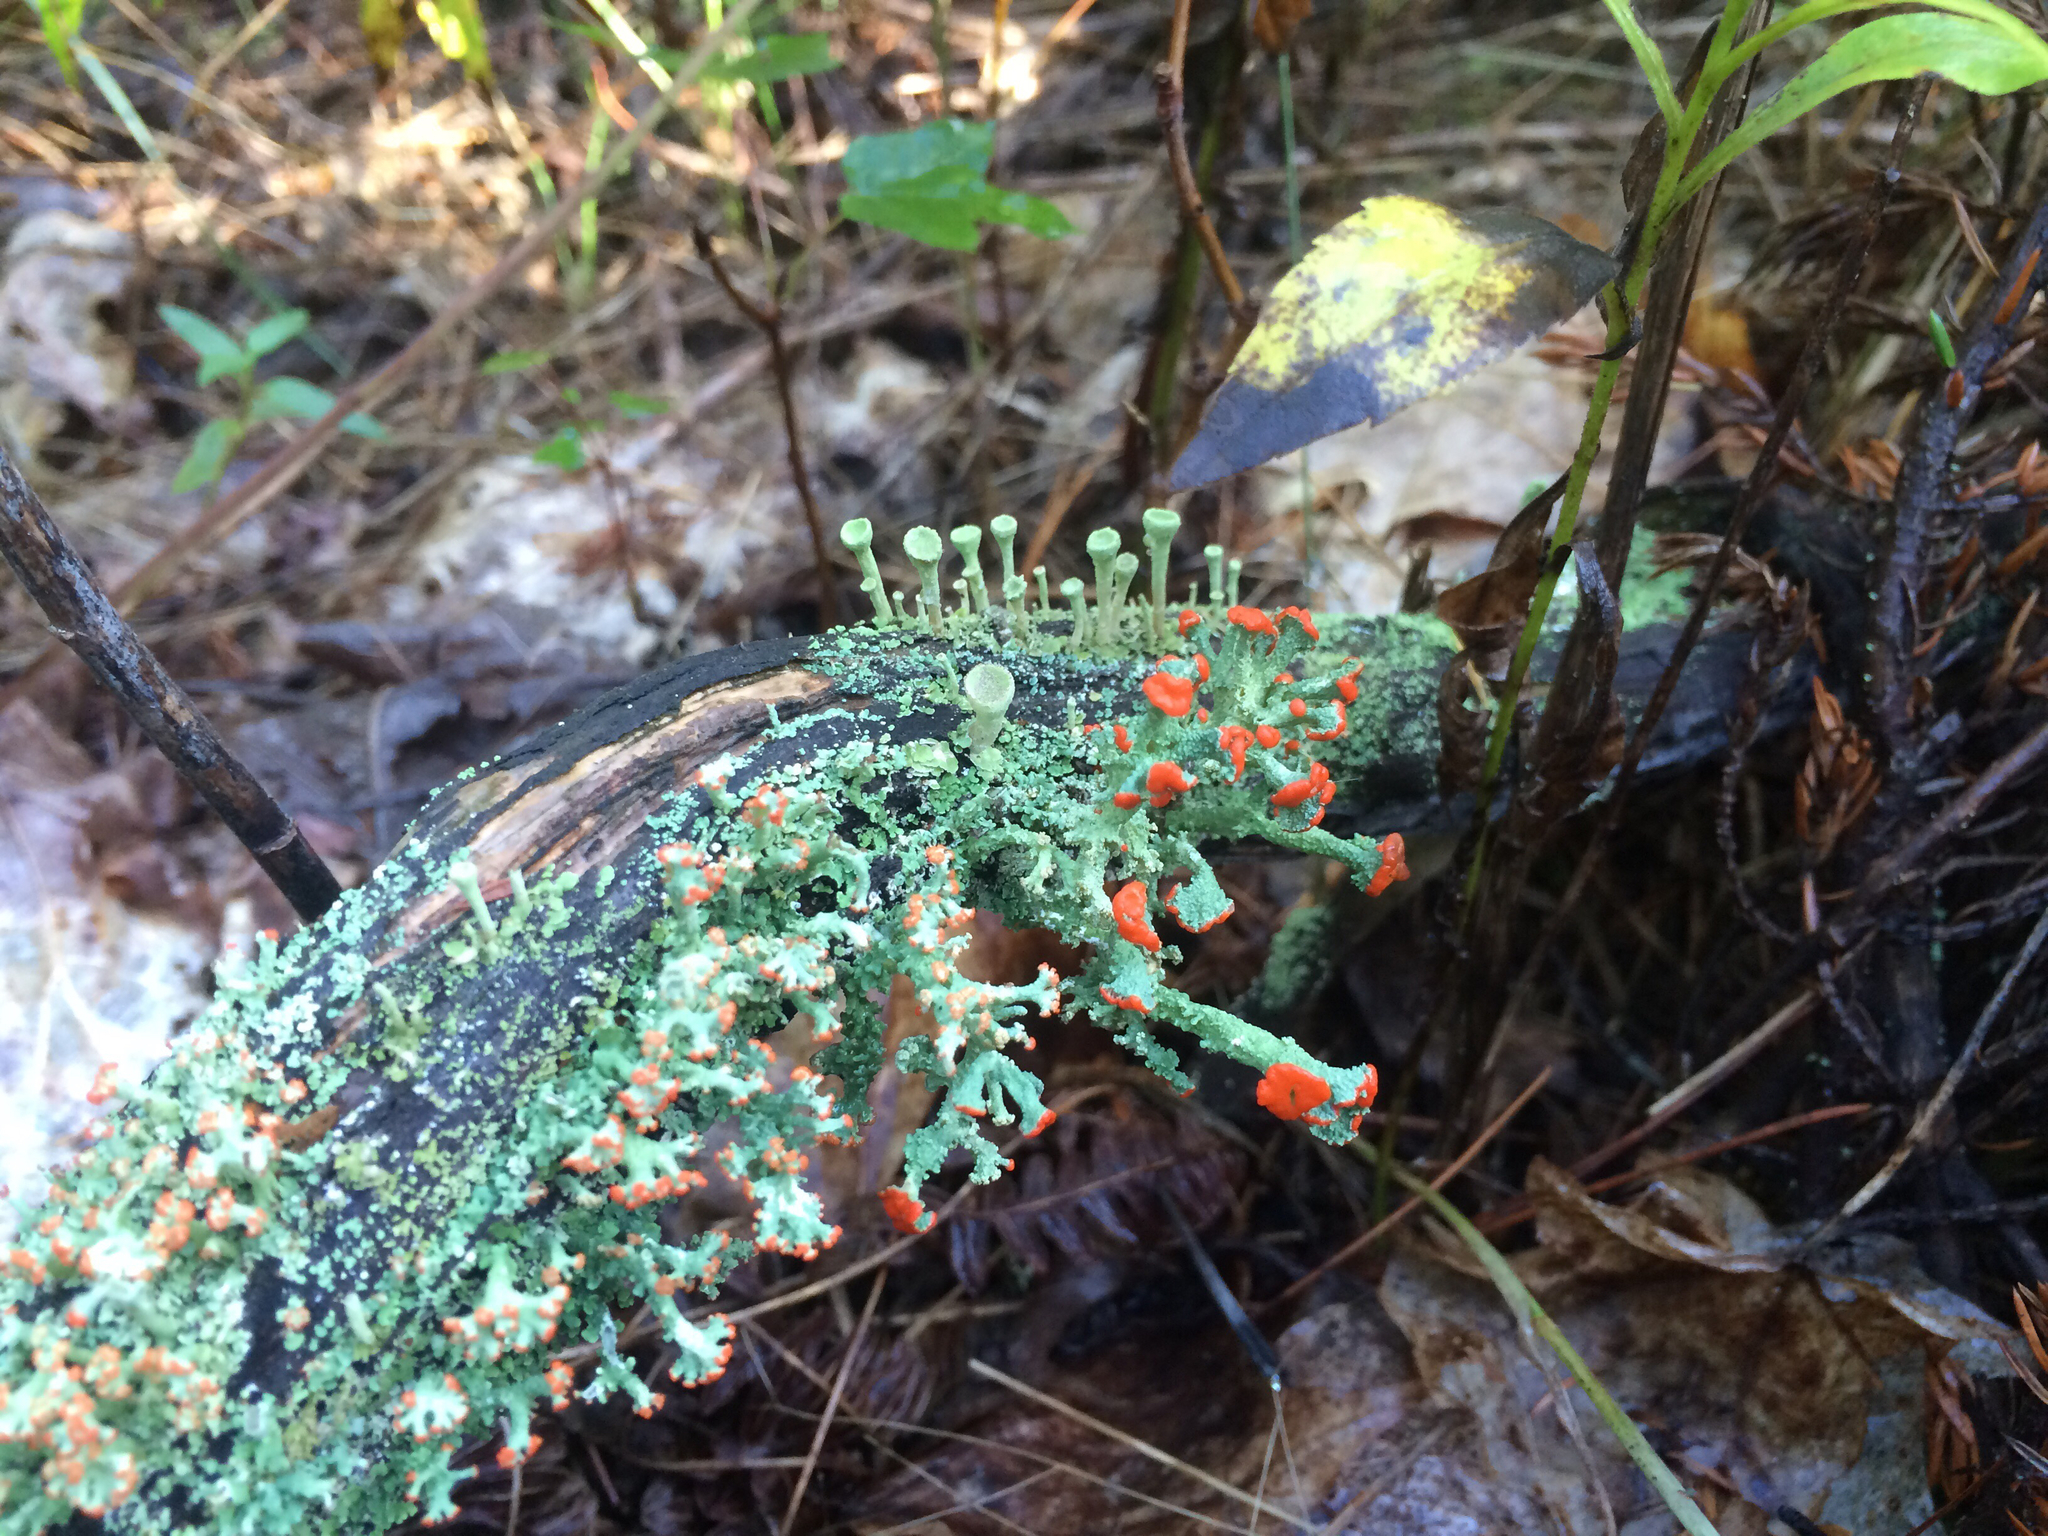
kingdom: Fungi
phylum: Ascomycota
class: Lecanoromycetes
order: Lecanorales
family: Cladoniaceae
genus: Cladonia
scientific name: Cladonia cristatella
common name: British soldier lichen
